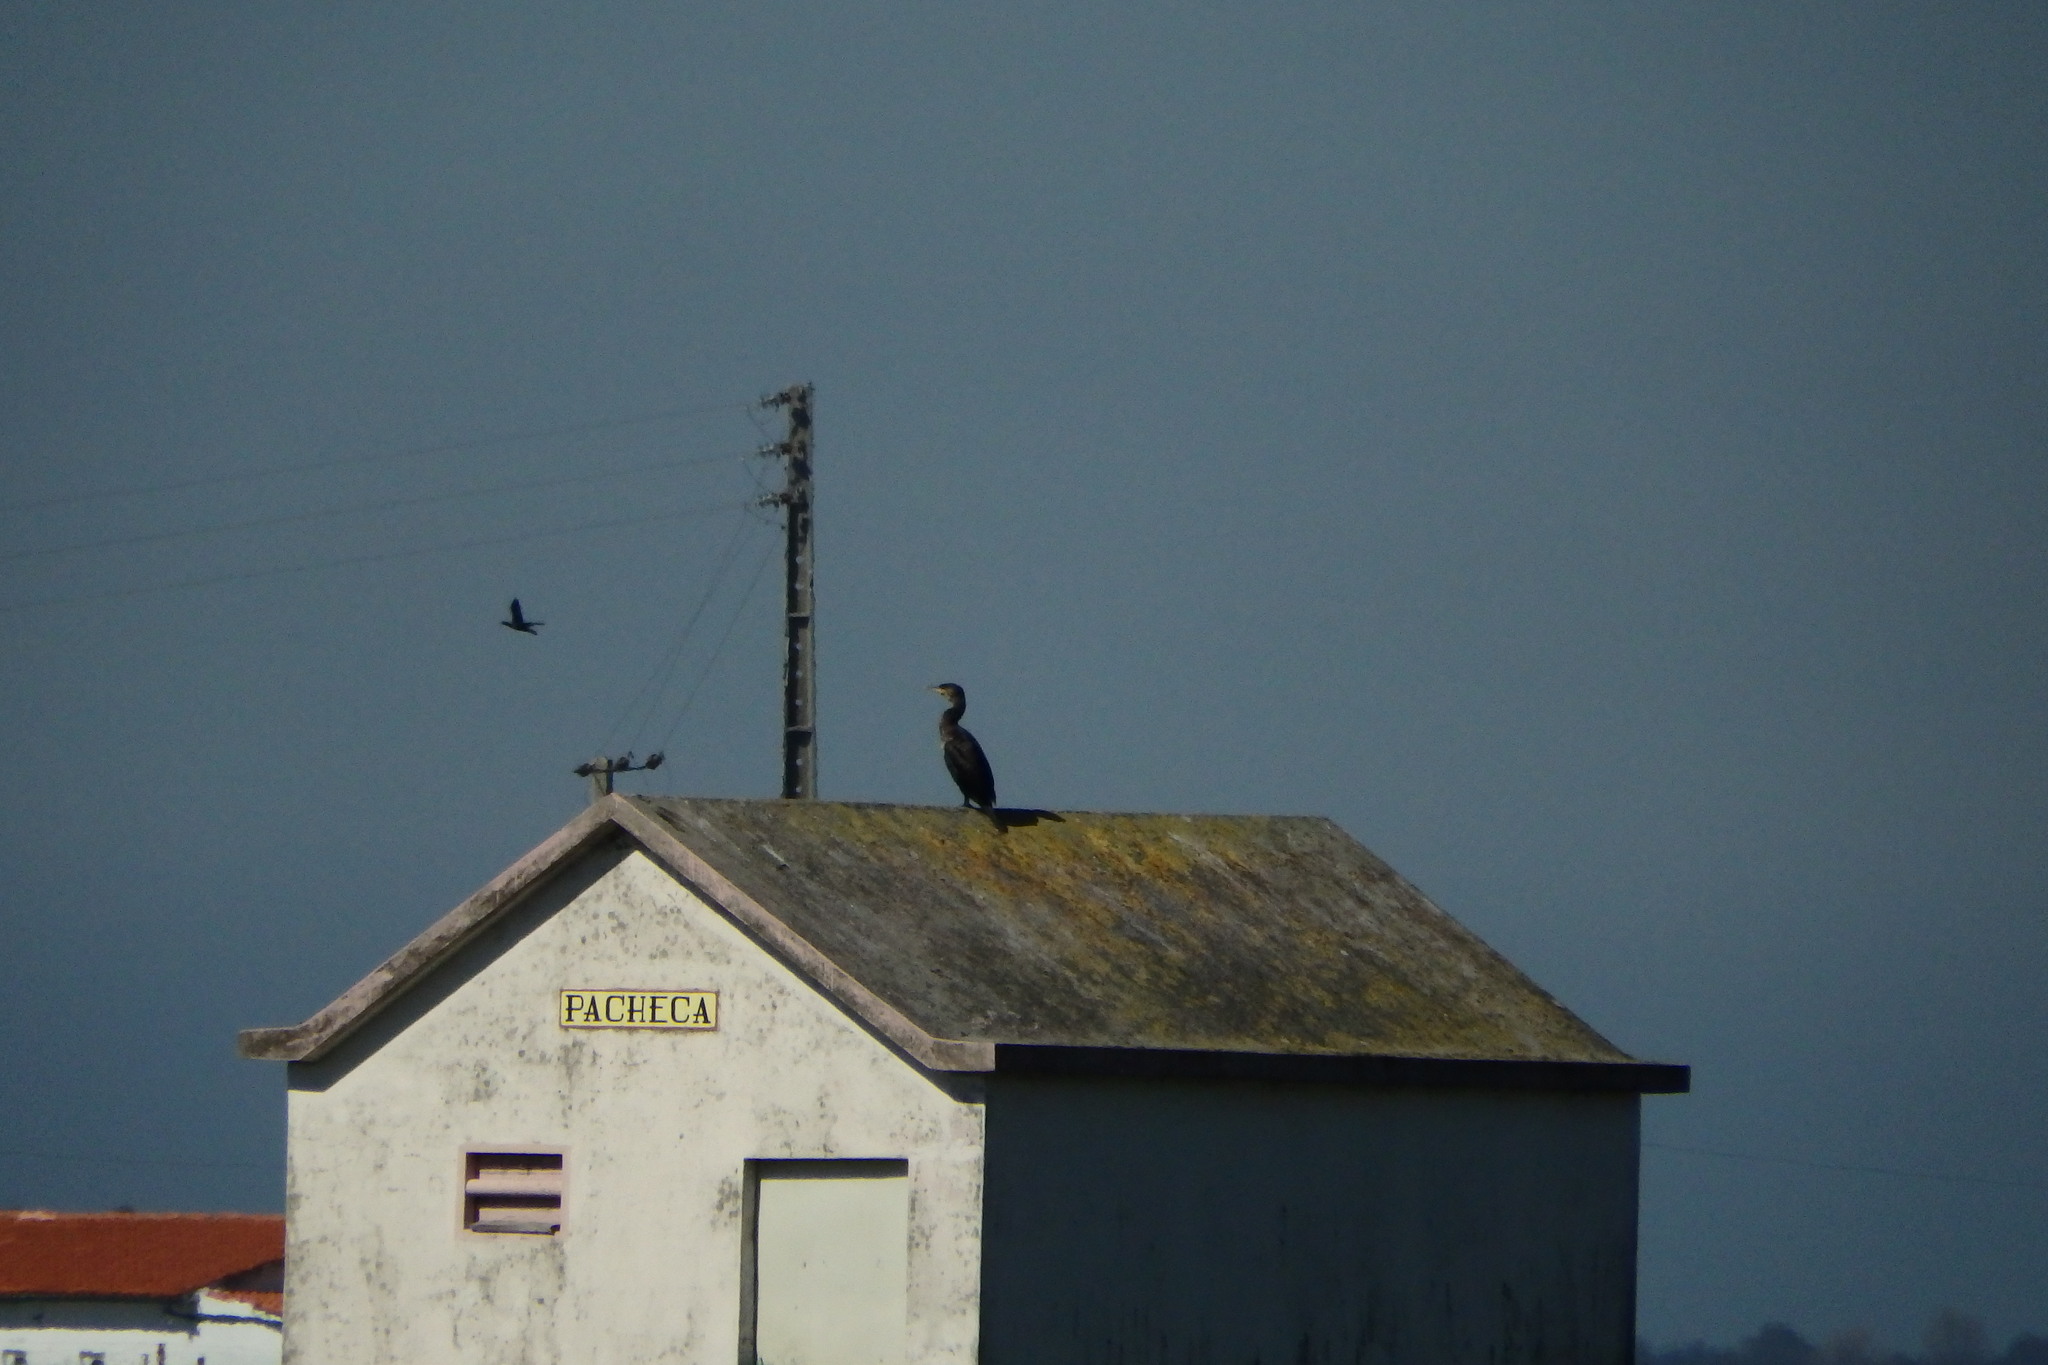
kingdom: Animalia
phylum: Chordata
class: Aves
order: Suliformes
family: Phalacrocoracidae
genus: Phalacrocorax
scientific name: Phalacrocorax carbo
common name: Great cormorant
